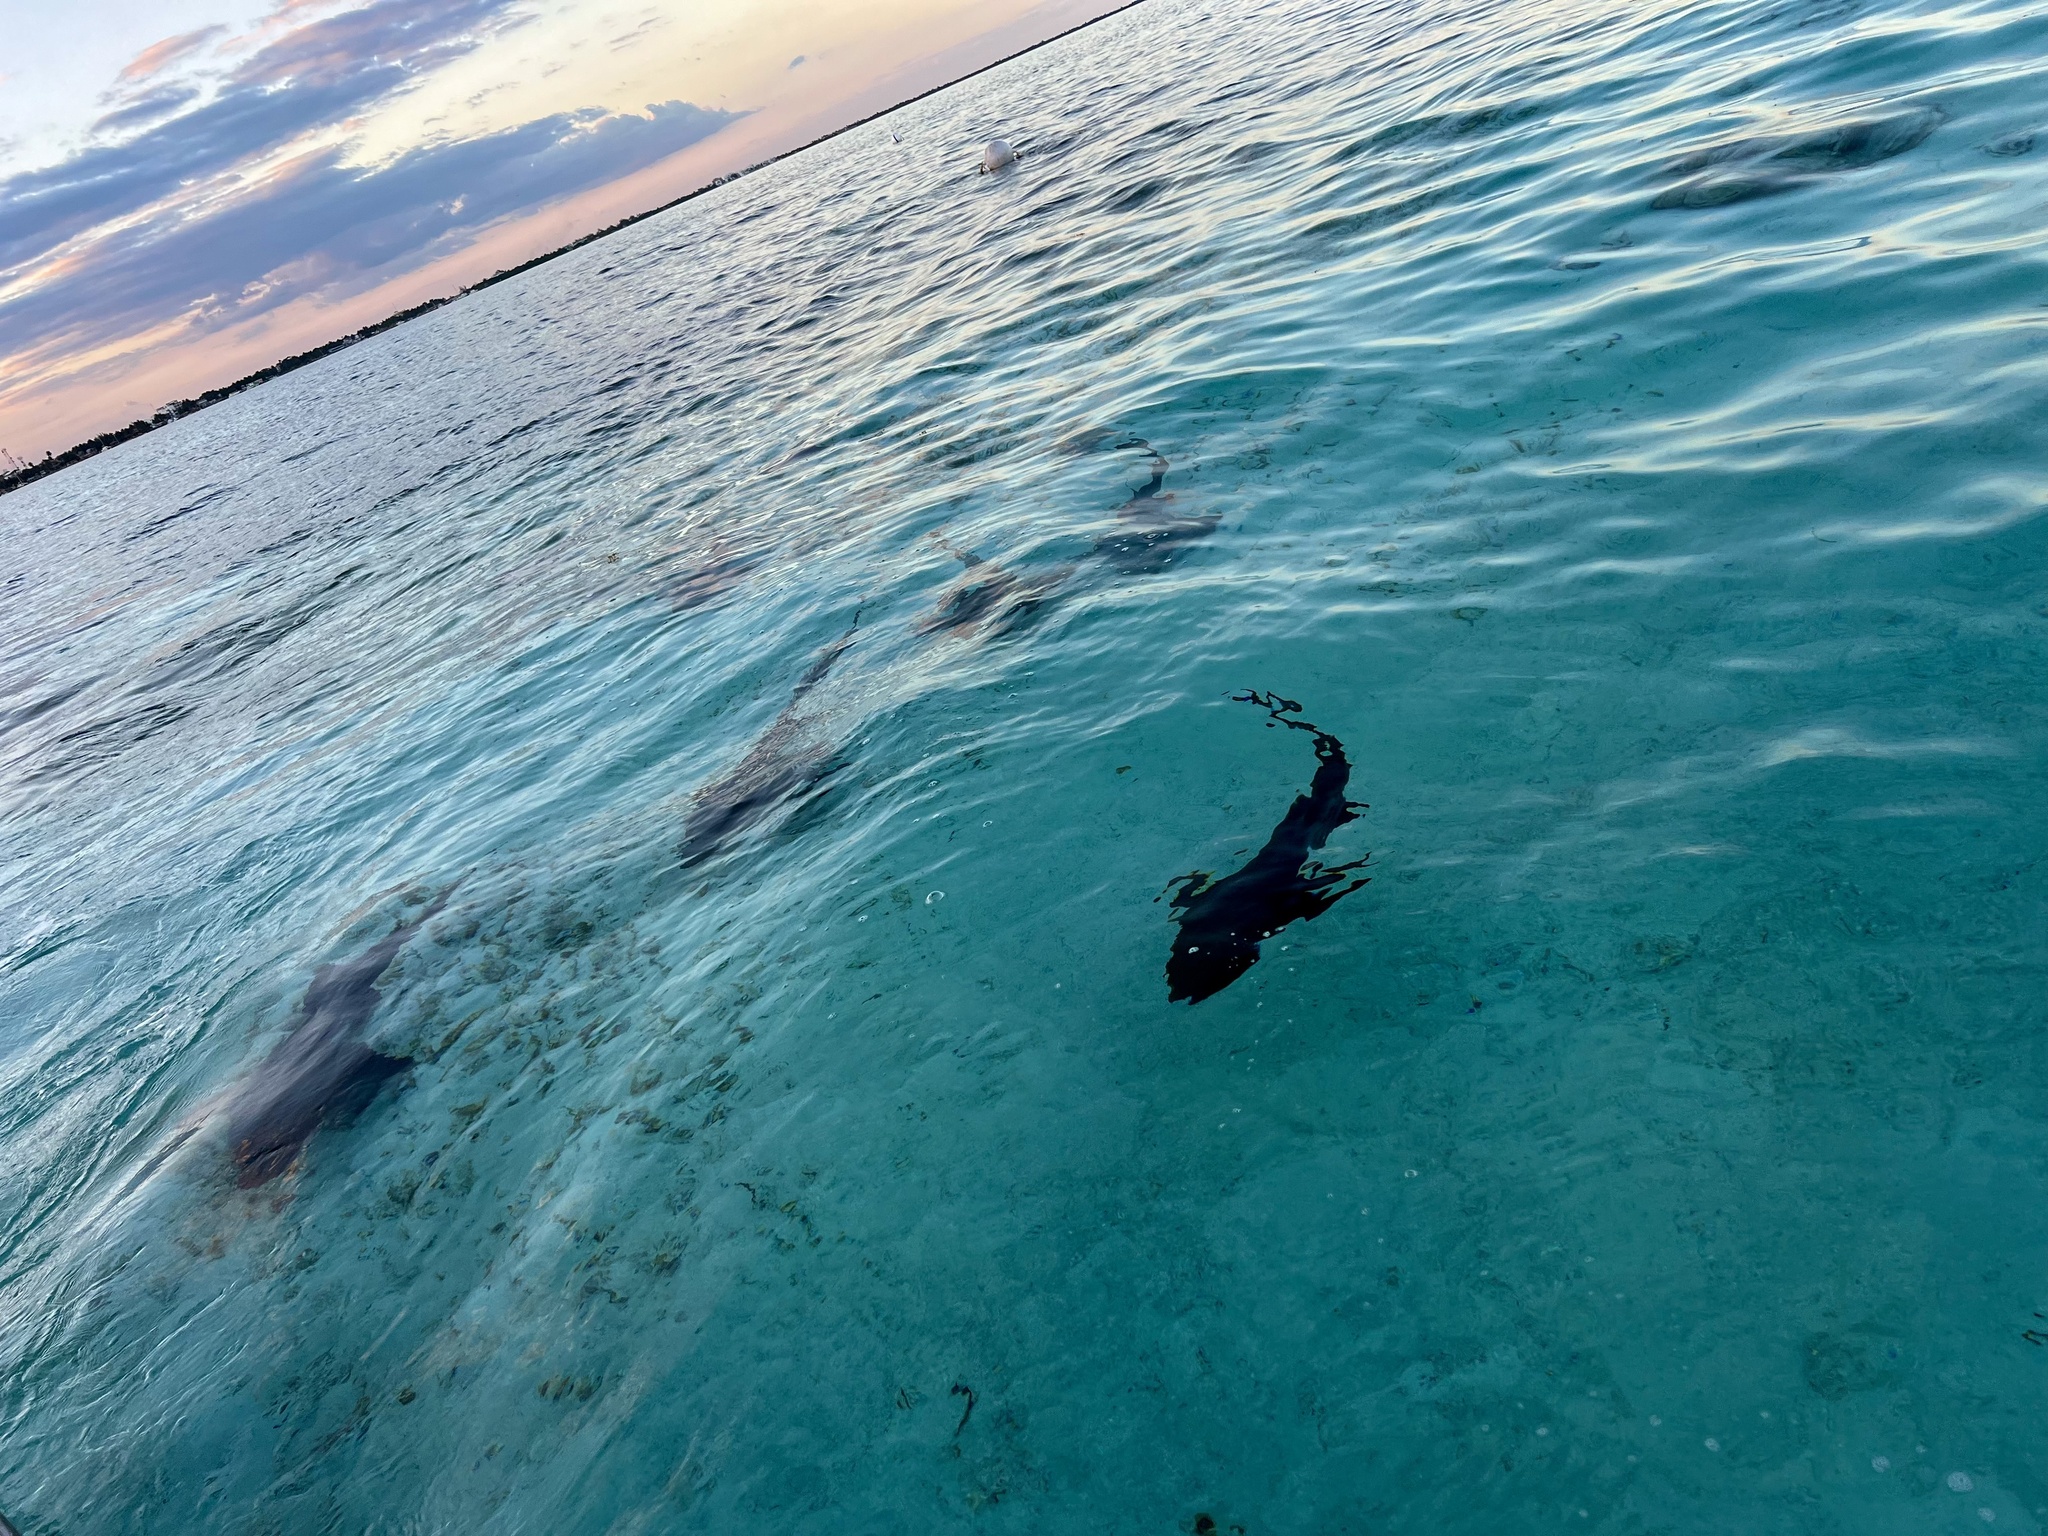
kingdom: Animalia
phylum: Chordata
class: Elasmobranchii
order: Orectolobiformes
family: Ginglymostomatidae
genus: Ginglymostoma
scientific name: Ginglymostoma cirratum
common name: Nurse shark
